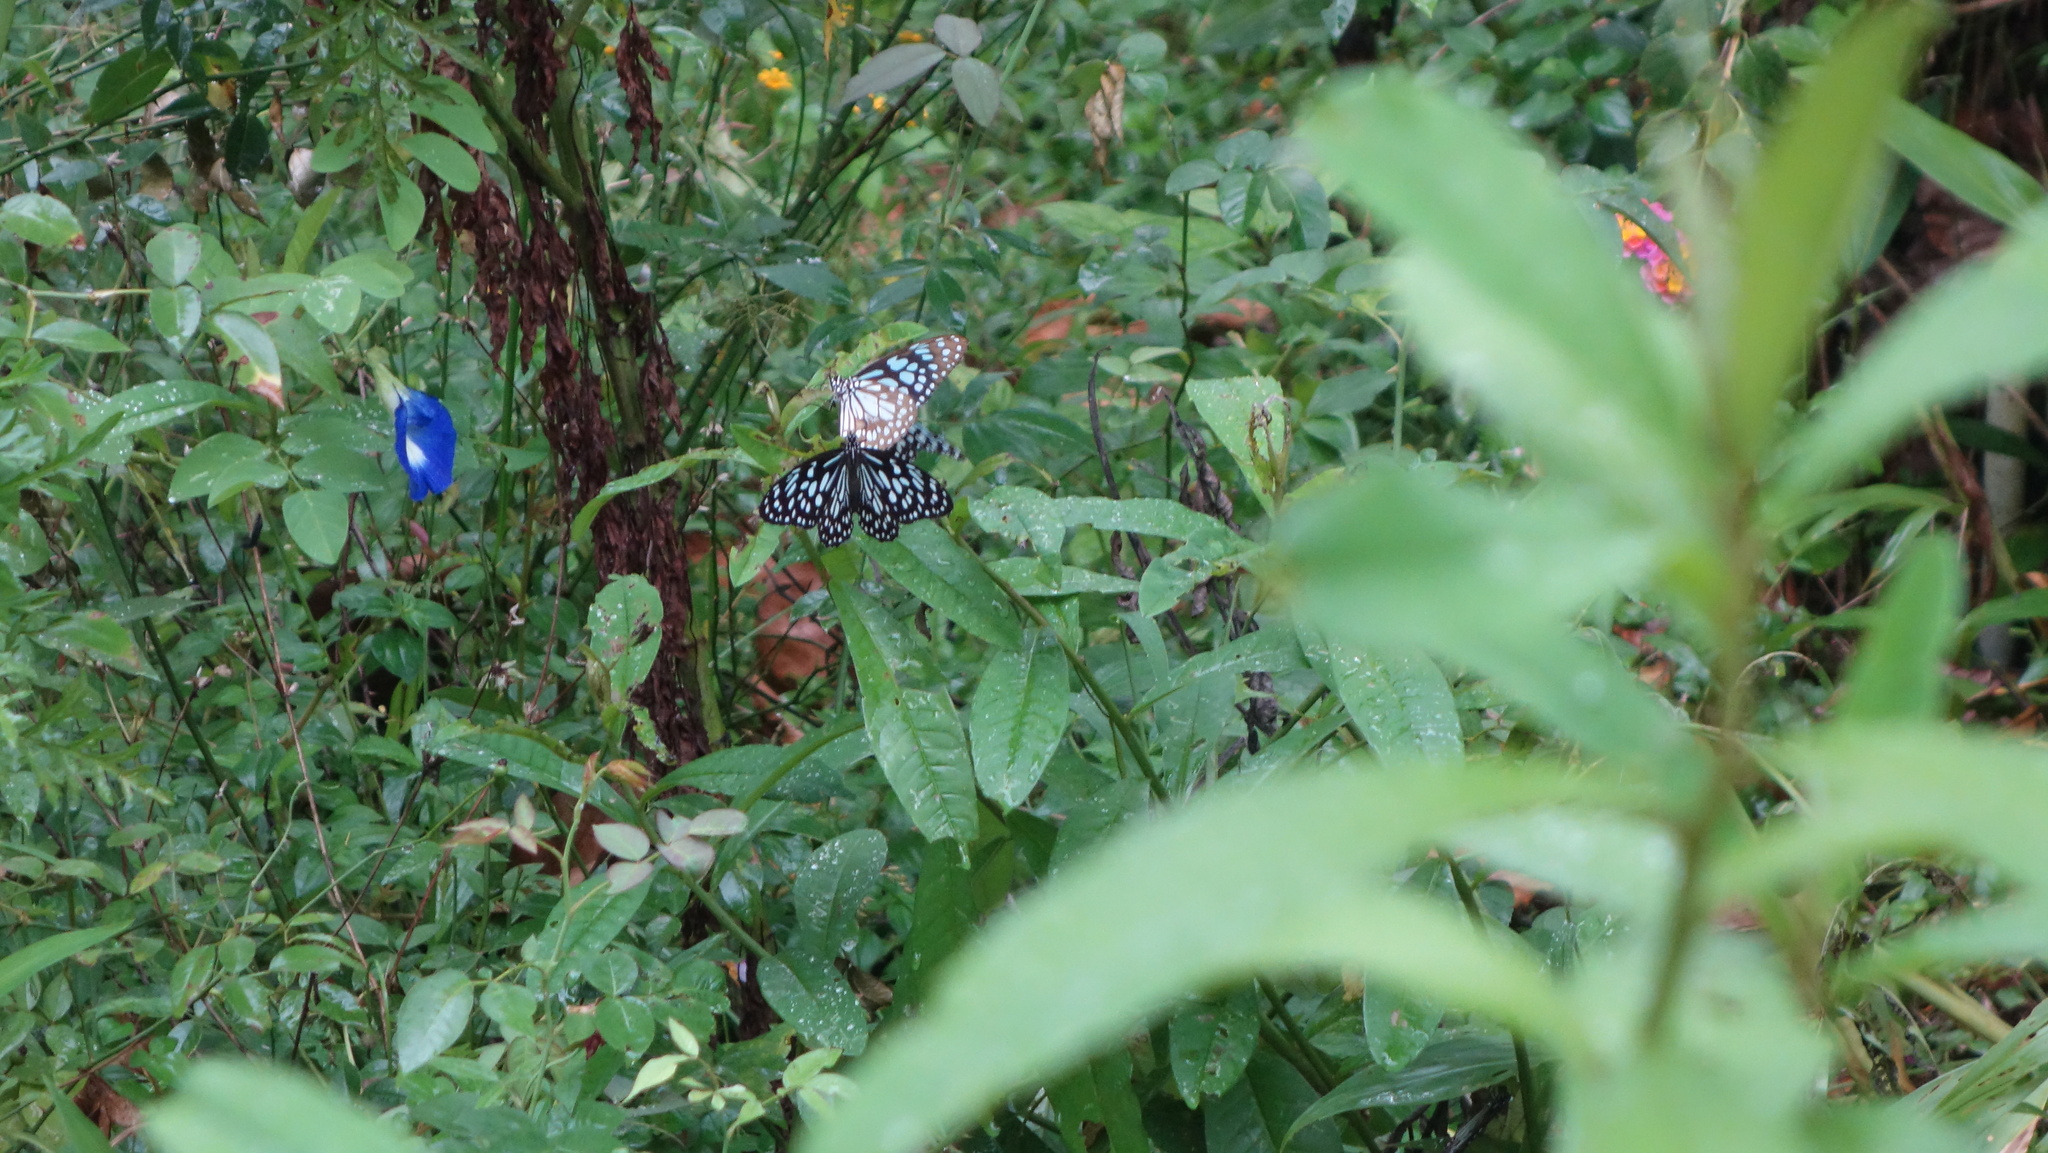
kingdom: Animalia
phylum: Arthropoda
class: Insecta
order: Lepidoptera
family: Nymphalidae
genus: Tirumala
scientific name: Tirumala septentrionis
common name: Dark blue tiger butterfly
